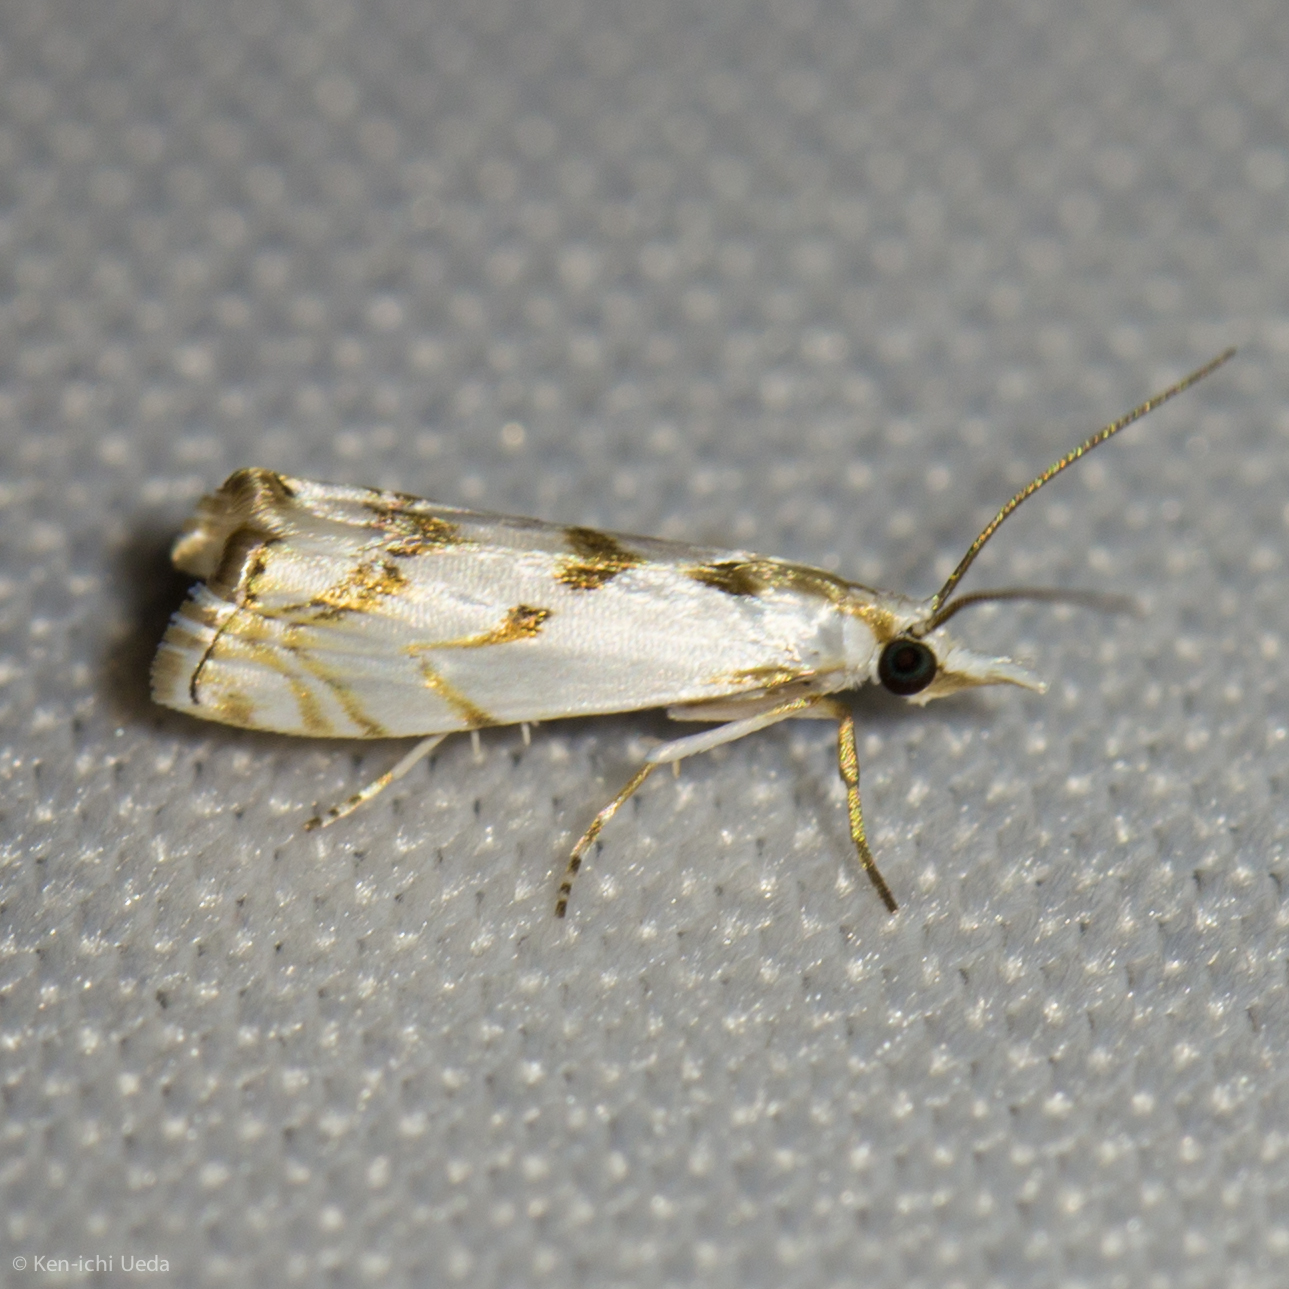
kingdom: Animalia
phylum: Arthropoda
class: Insecta
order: Lepidoptera
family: Crambidae
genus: Microcrambus
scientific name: Microcrambus copelandi
